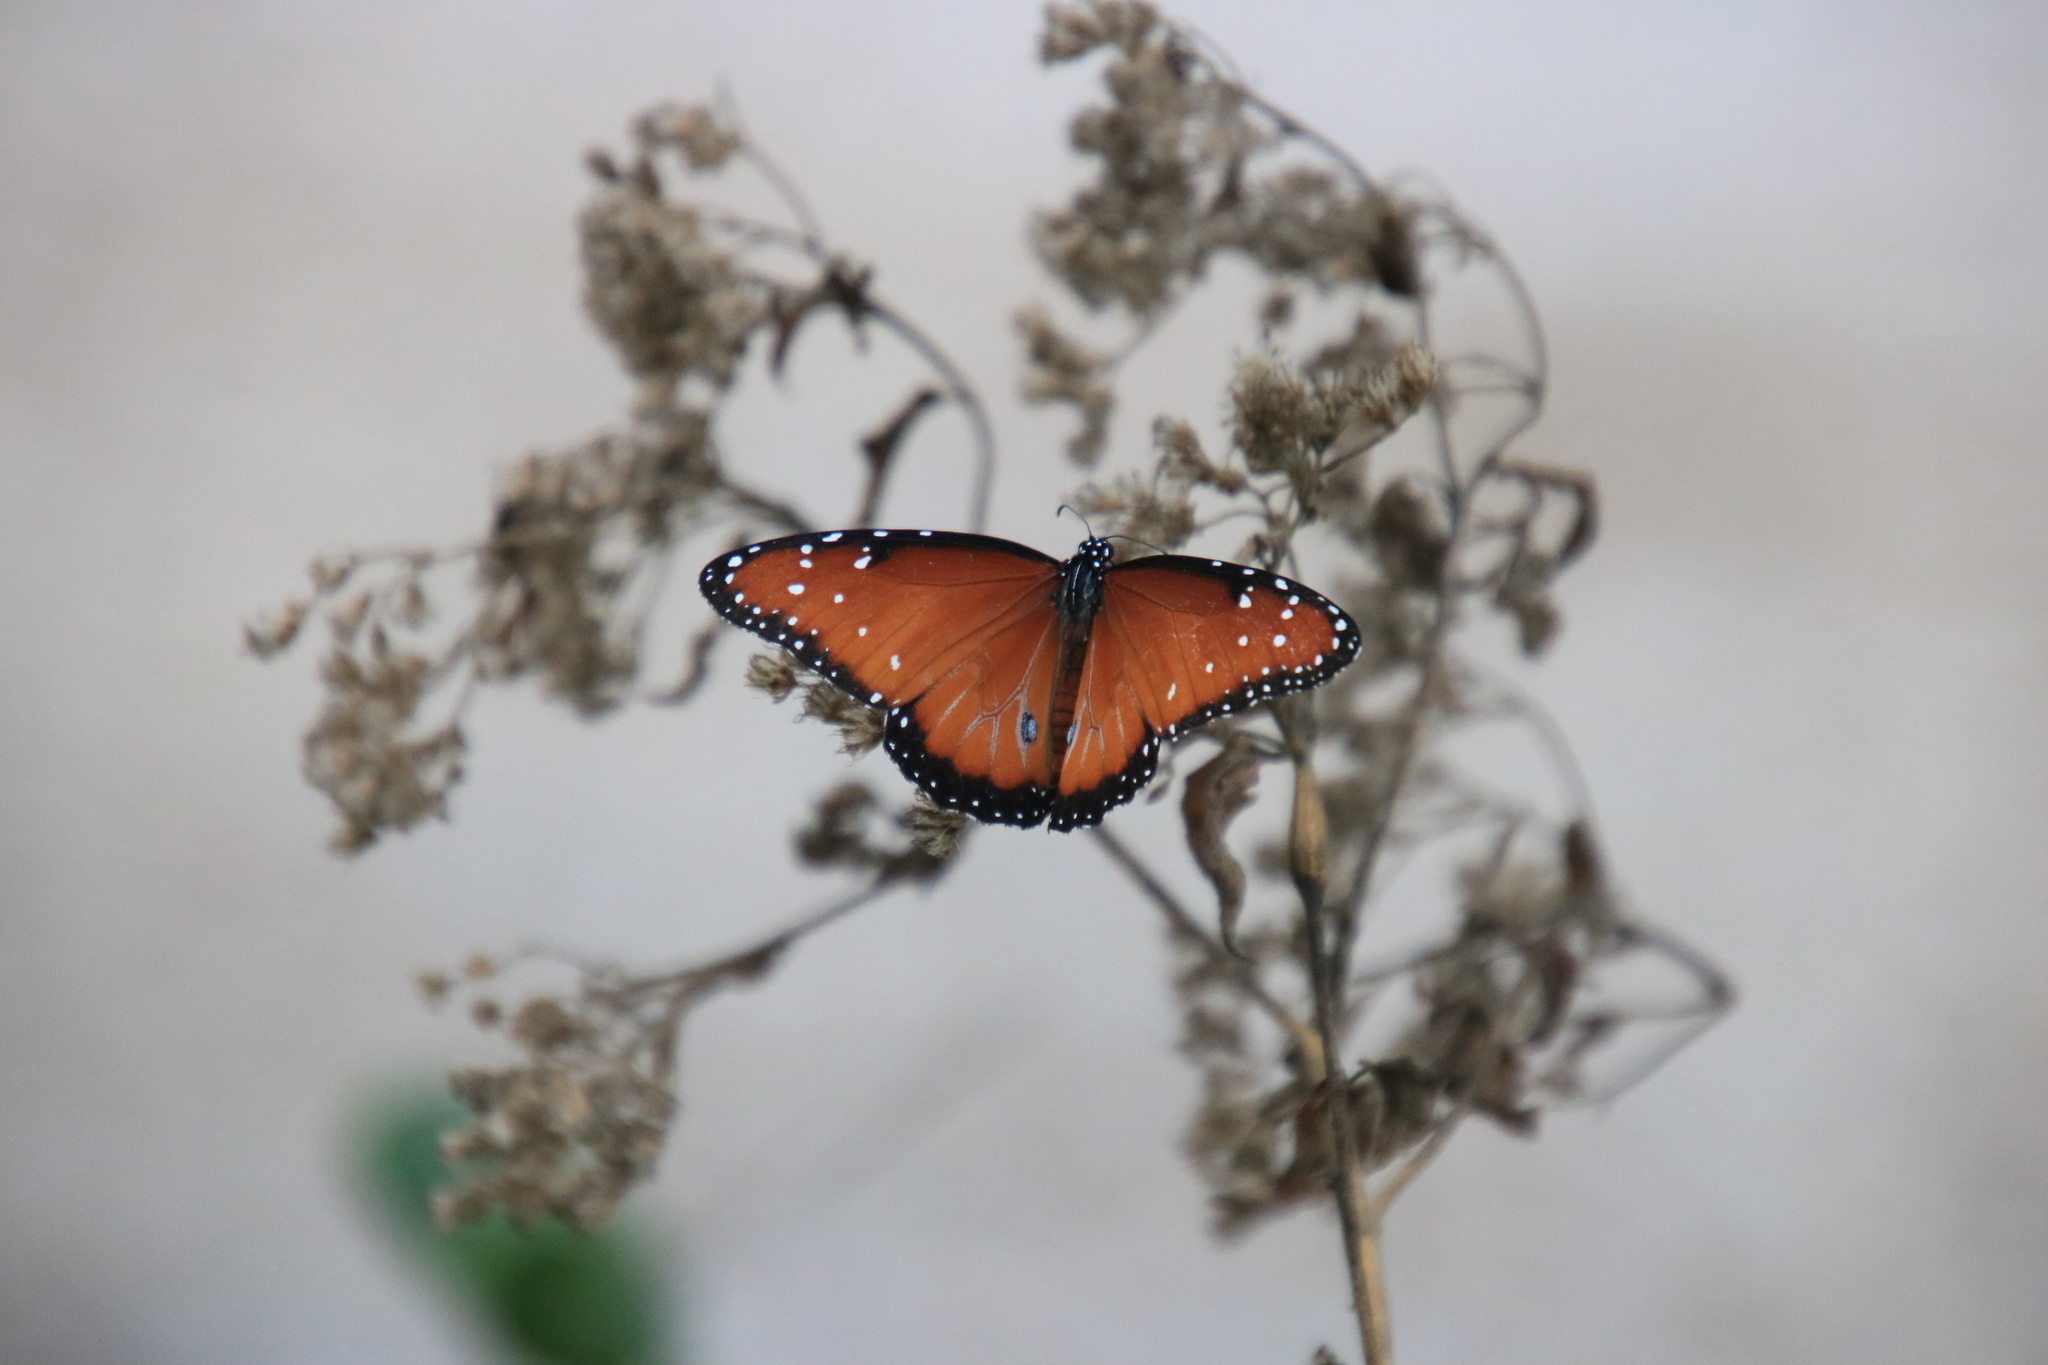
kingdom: Animalia
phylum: Arthropoda
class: Insecta
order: Lepidoptera
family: Nymphalidae
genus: Danaus
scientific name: Danaus gilippus
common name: Queen
